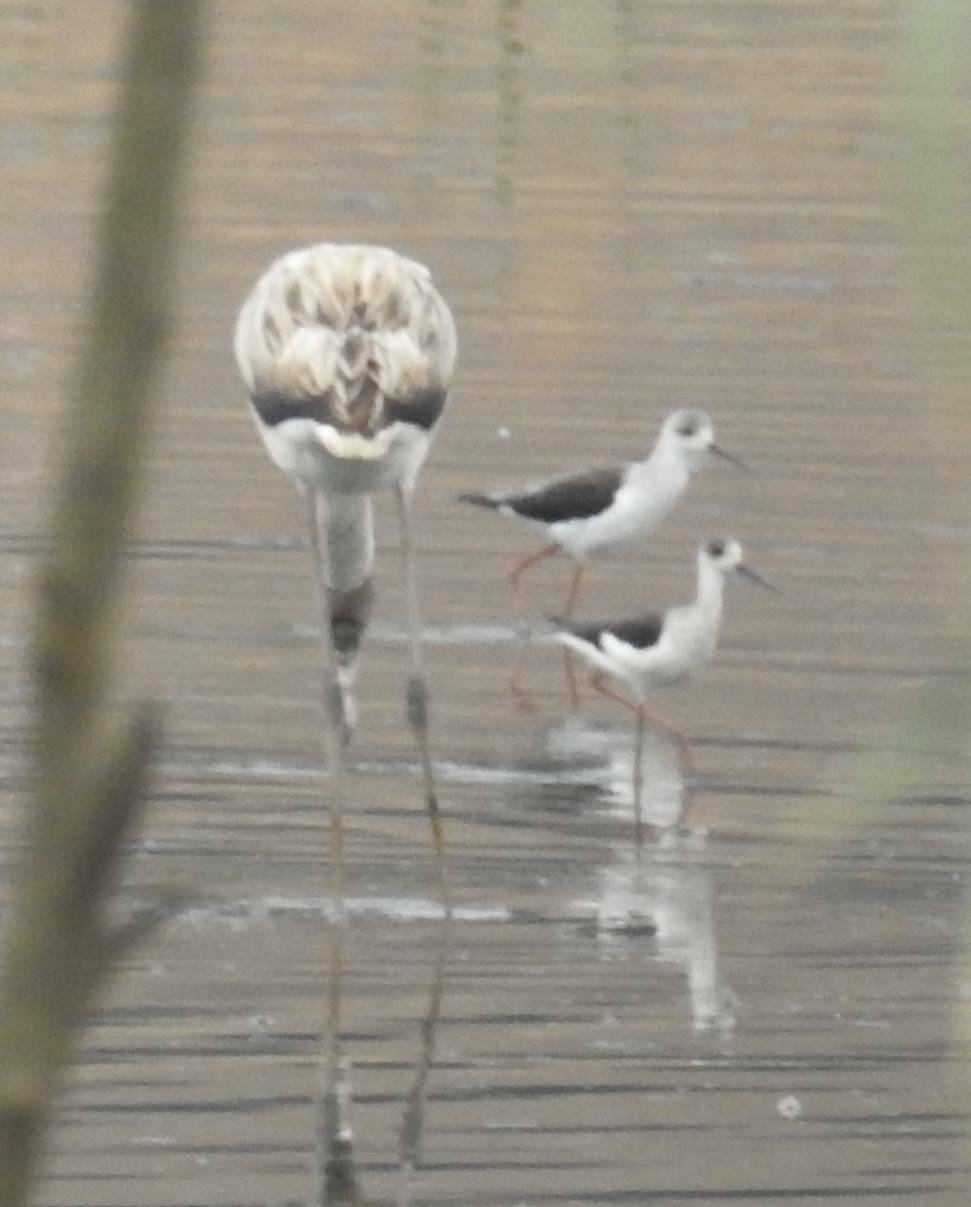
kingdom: Animalia
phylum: Chordata
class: Aves
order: Charadriiformes
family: Recurvirostridae
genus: Himantopus
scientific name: Himantopus himantopus
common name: Black-winged stilt
